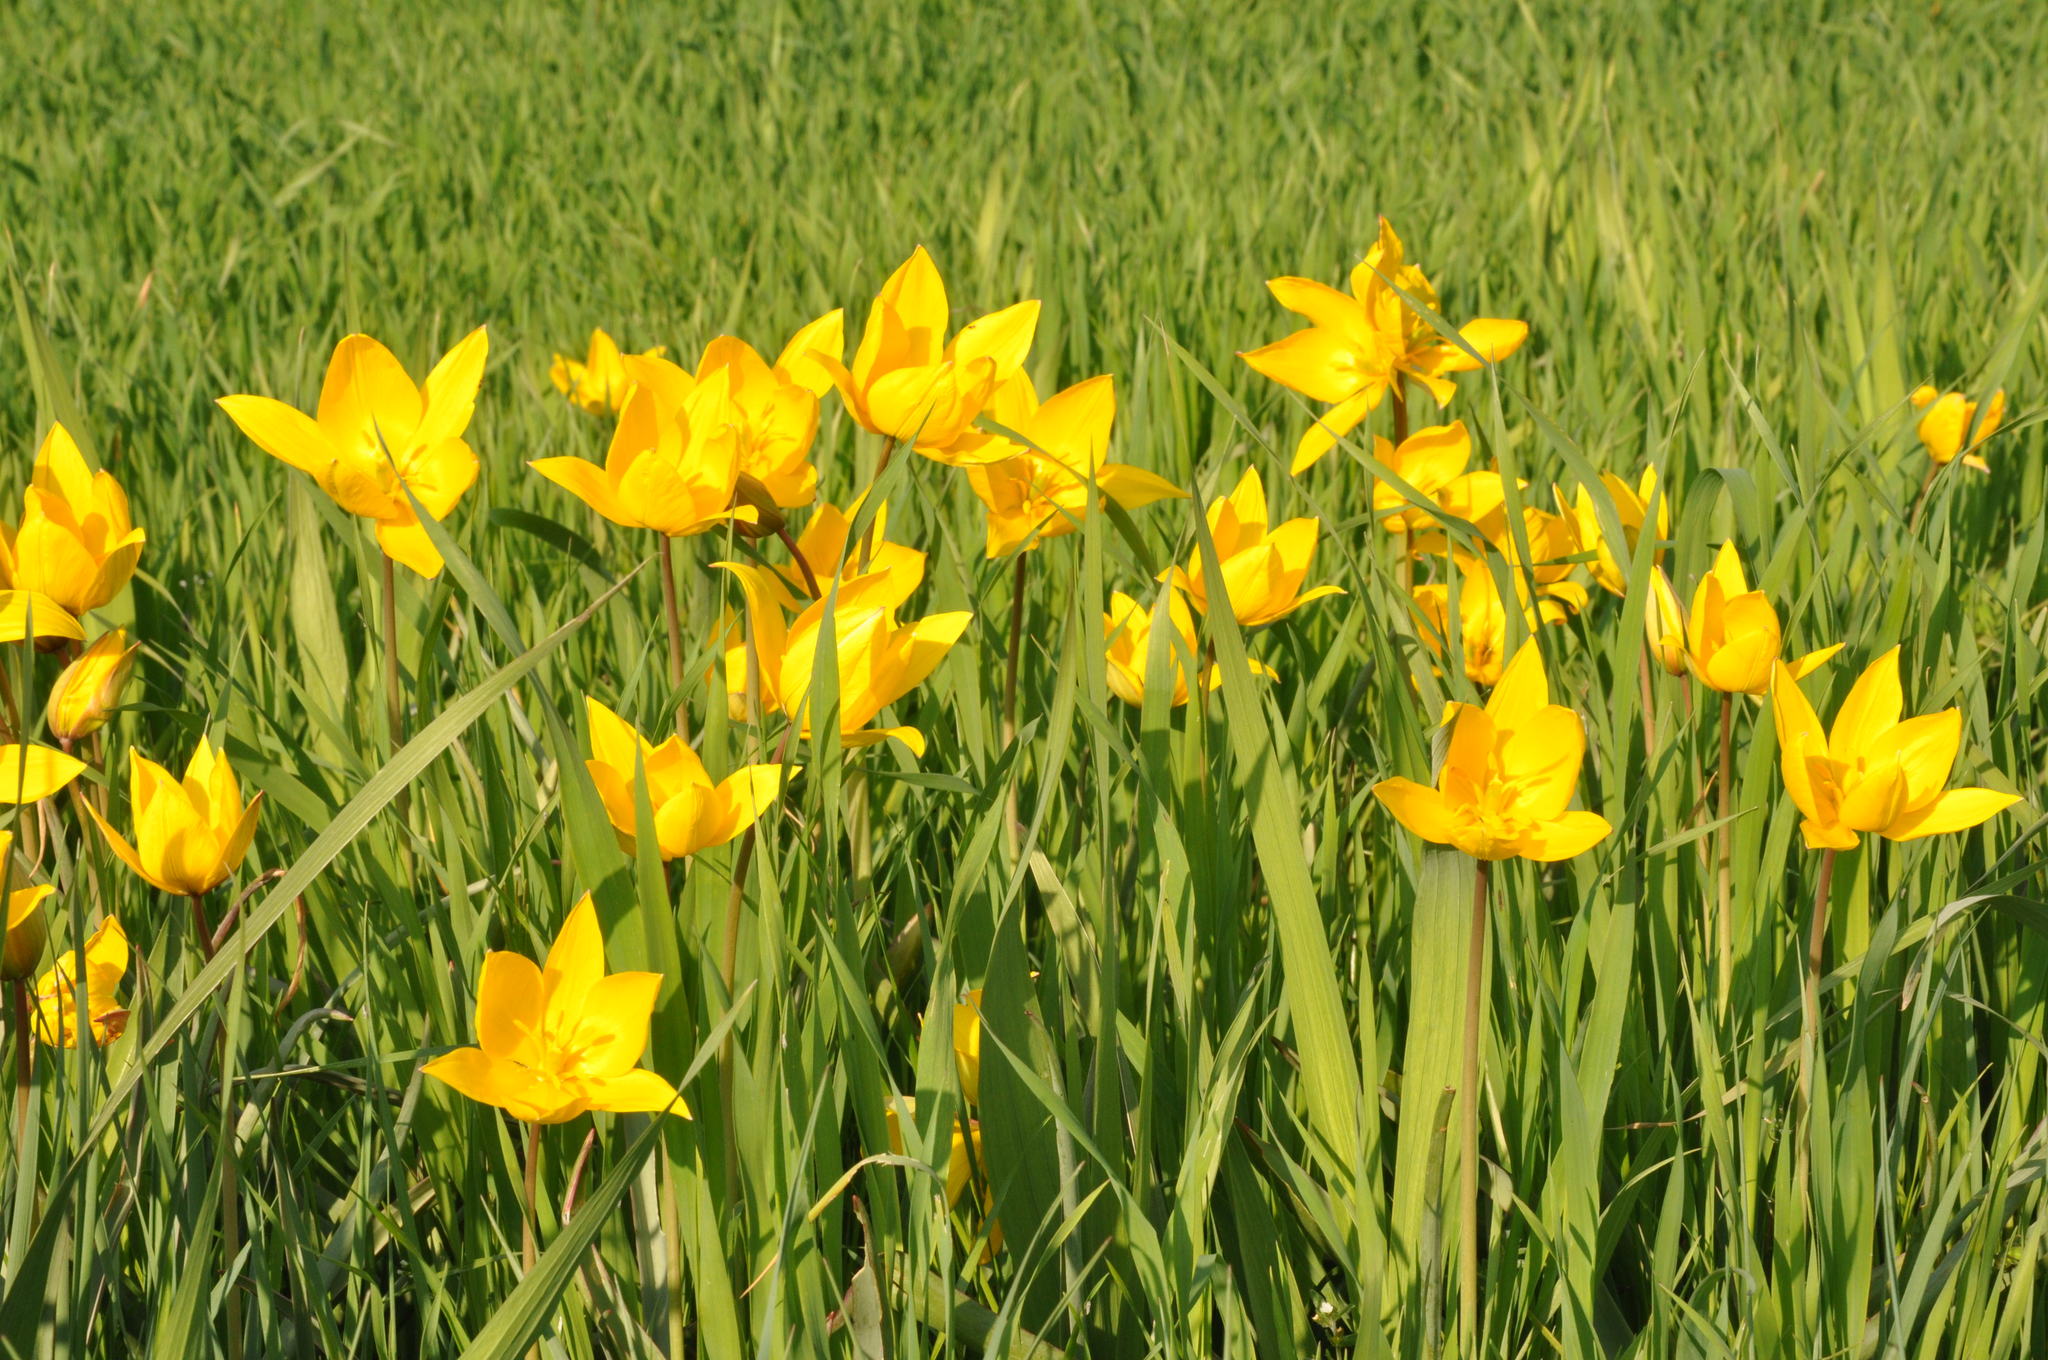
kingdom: Plantae
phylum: Tracheophyta
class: Liliopsida
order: Liliales
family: Liliaceae
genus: Tulipa
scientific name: Tulipa sylvestris
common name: Wild tulip
